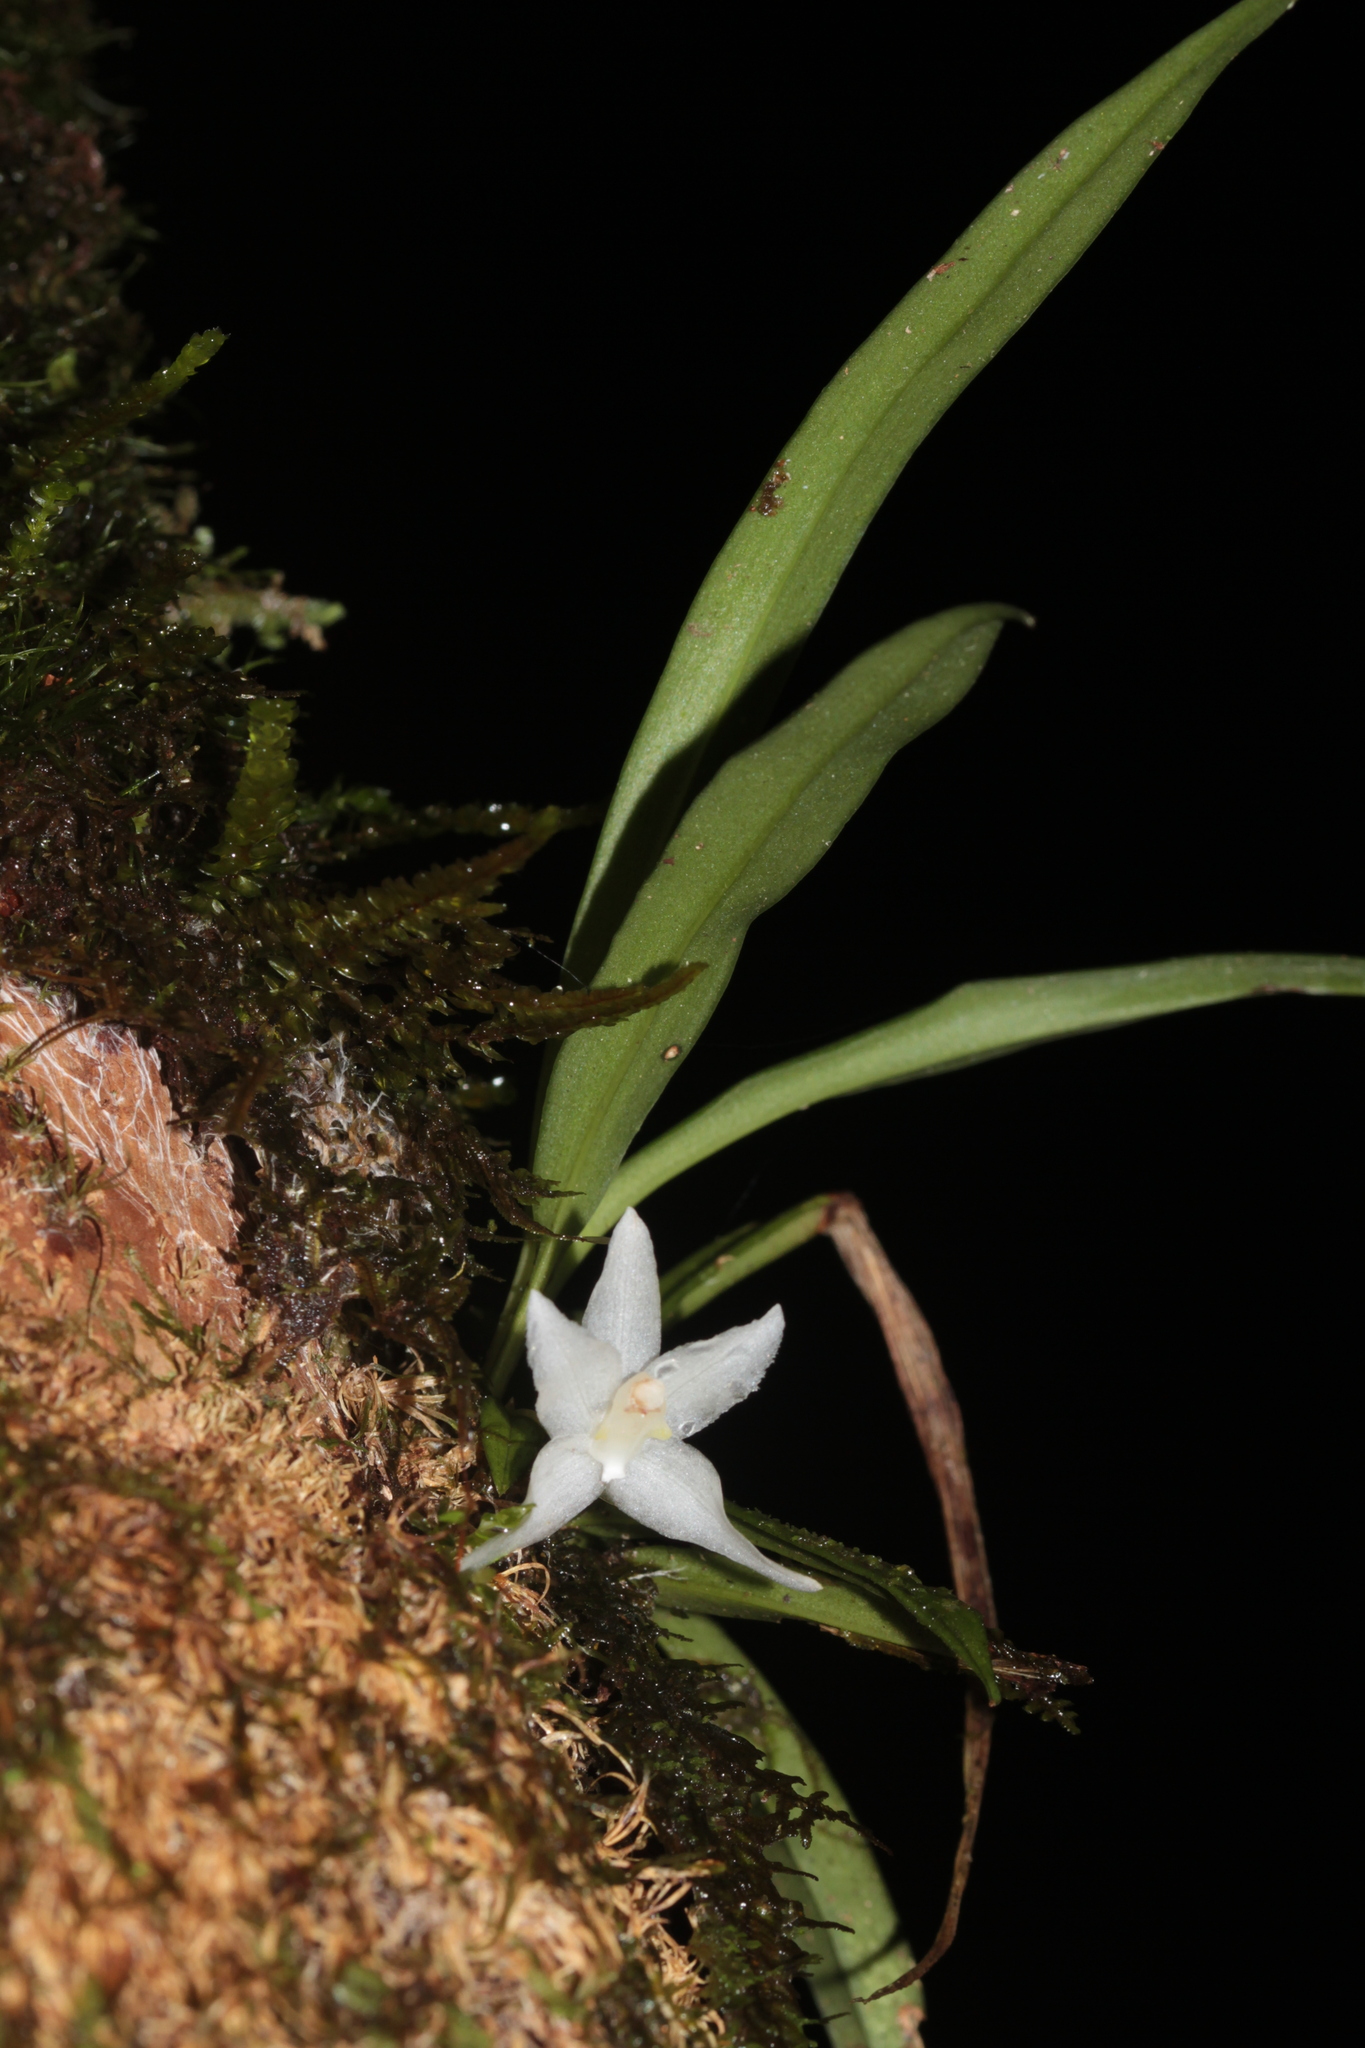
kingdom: Plantae
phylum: Tracheophyta
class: Liliopsida
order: Asparagales
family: Orchidaceae
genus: Kefersteinia
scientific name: Kefersteinia lafontainei
